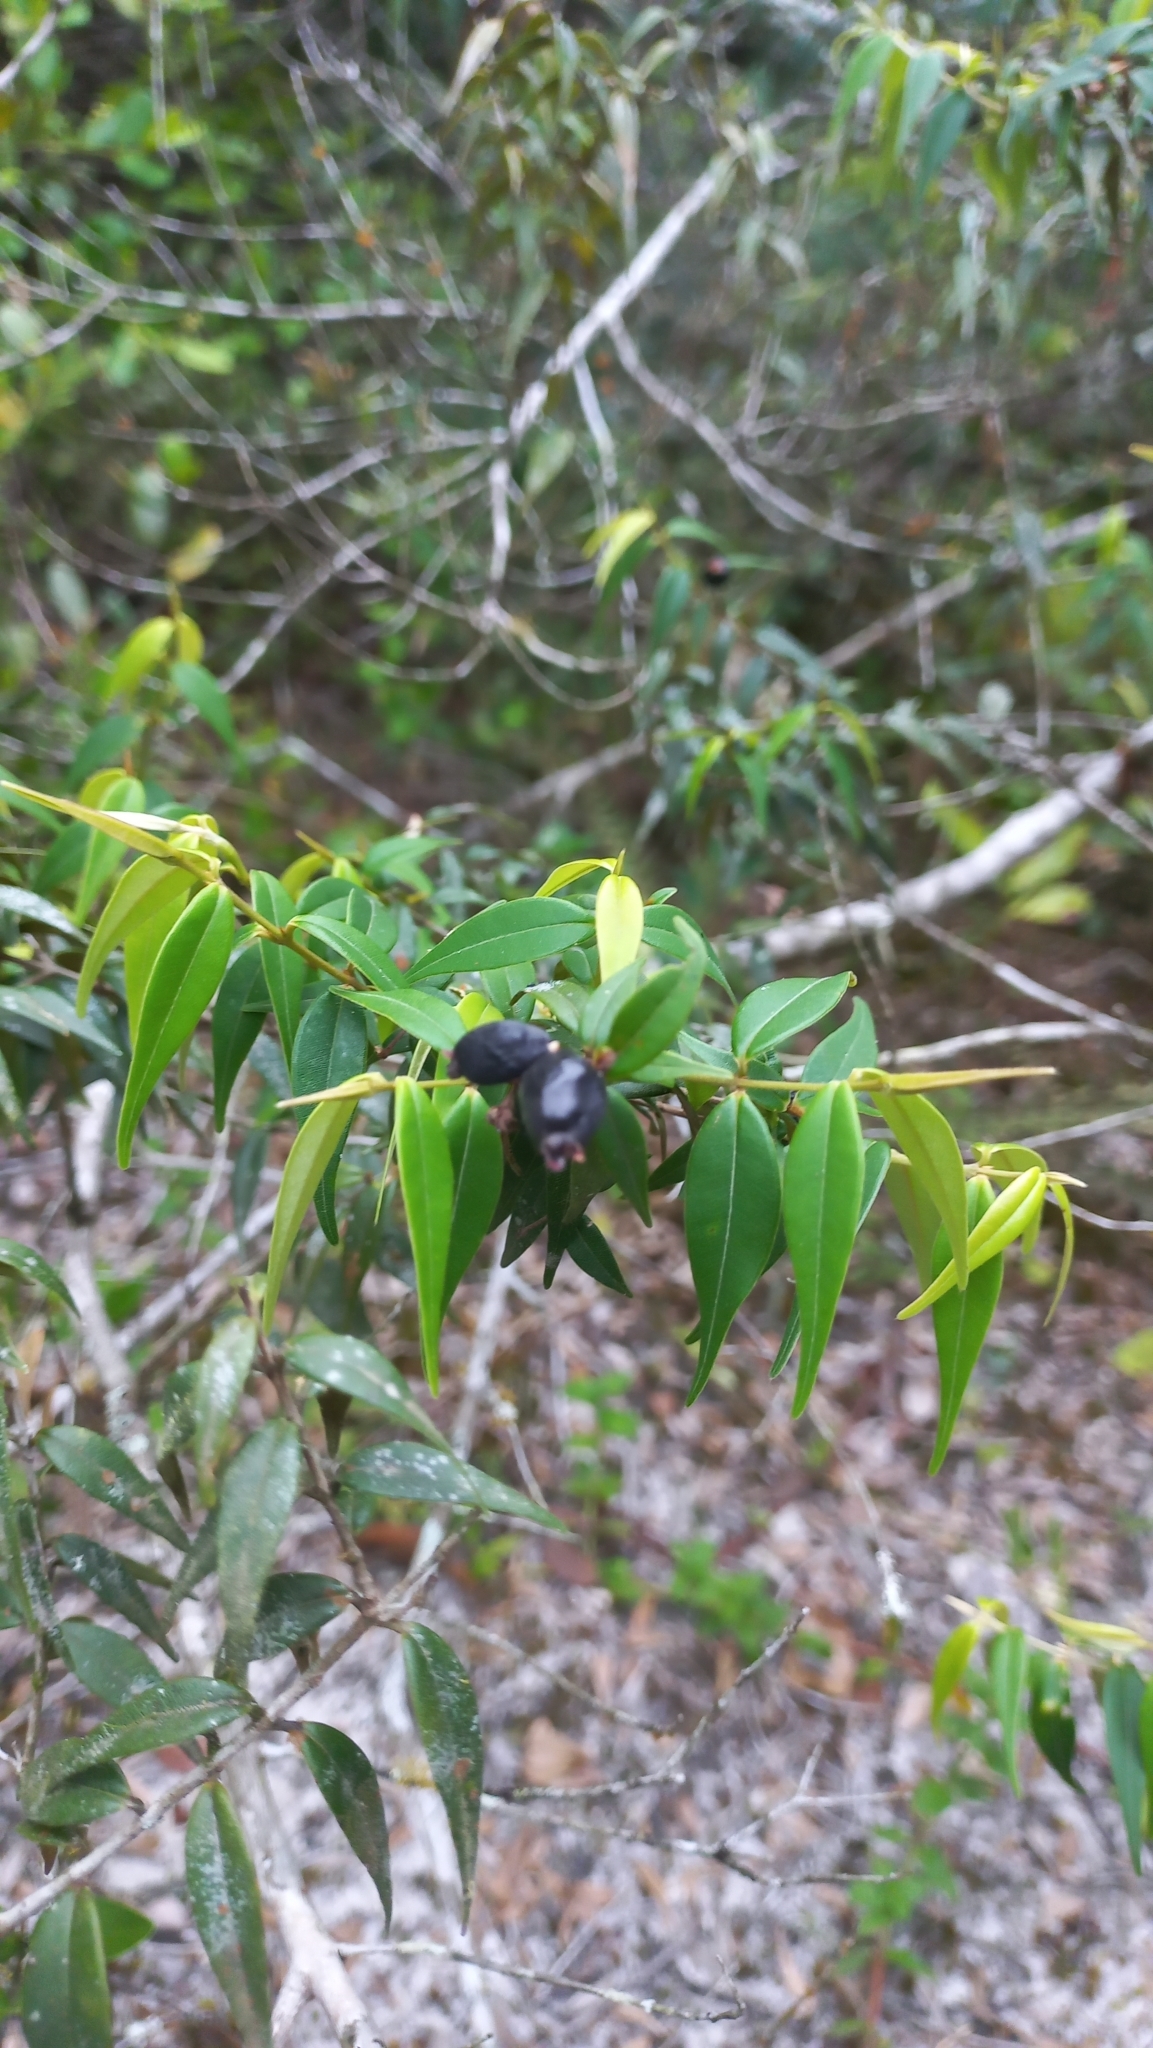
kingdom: Plantae
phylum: Tracheophyta
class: Magnoliopsida
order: Myrtales
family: Myrtaceae
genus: Myrcia
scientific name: Myrcia splendens
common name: Surinam cherry
